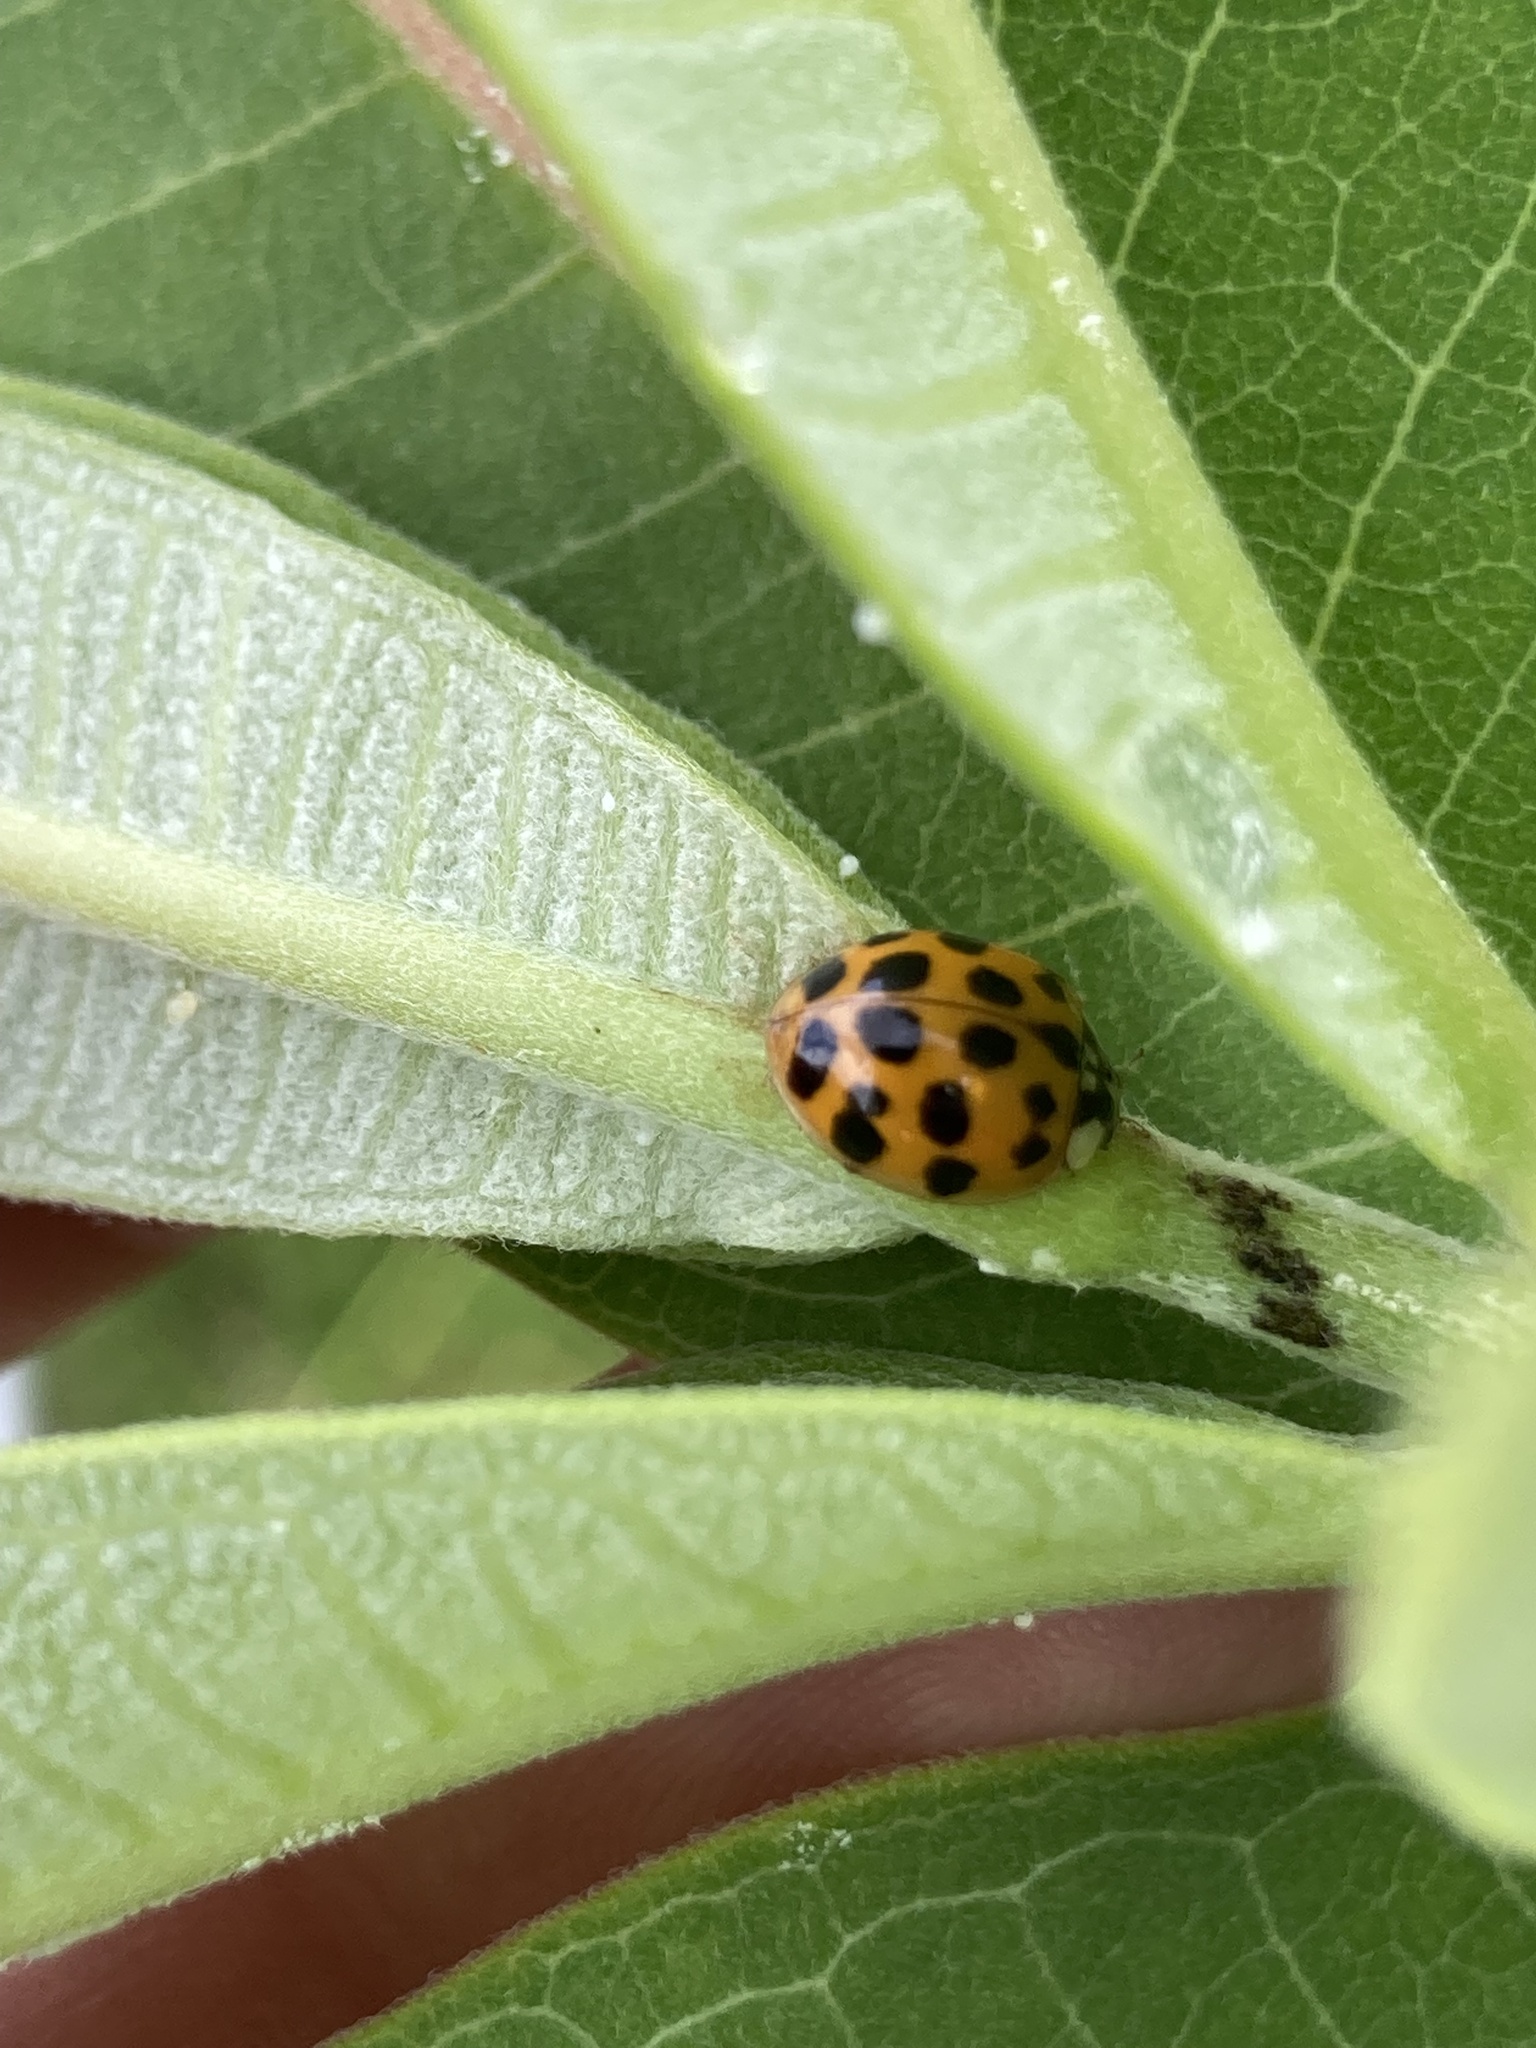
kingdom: Animalia
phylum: Arthropoda
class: Insecta
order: Coleoptera
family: Coccinellidae
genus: Harmonia
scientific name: Harmonia axyridis
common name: Harlequin ladybird
